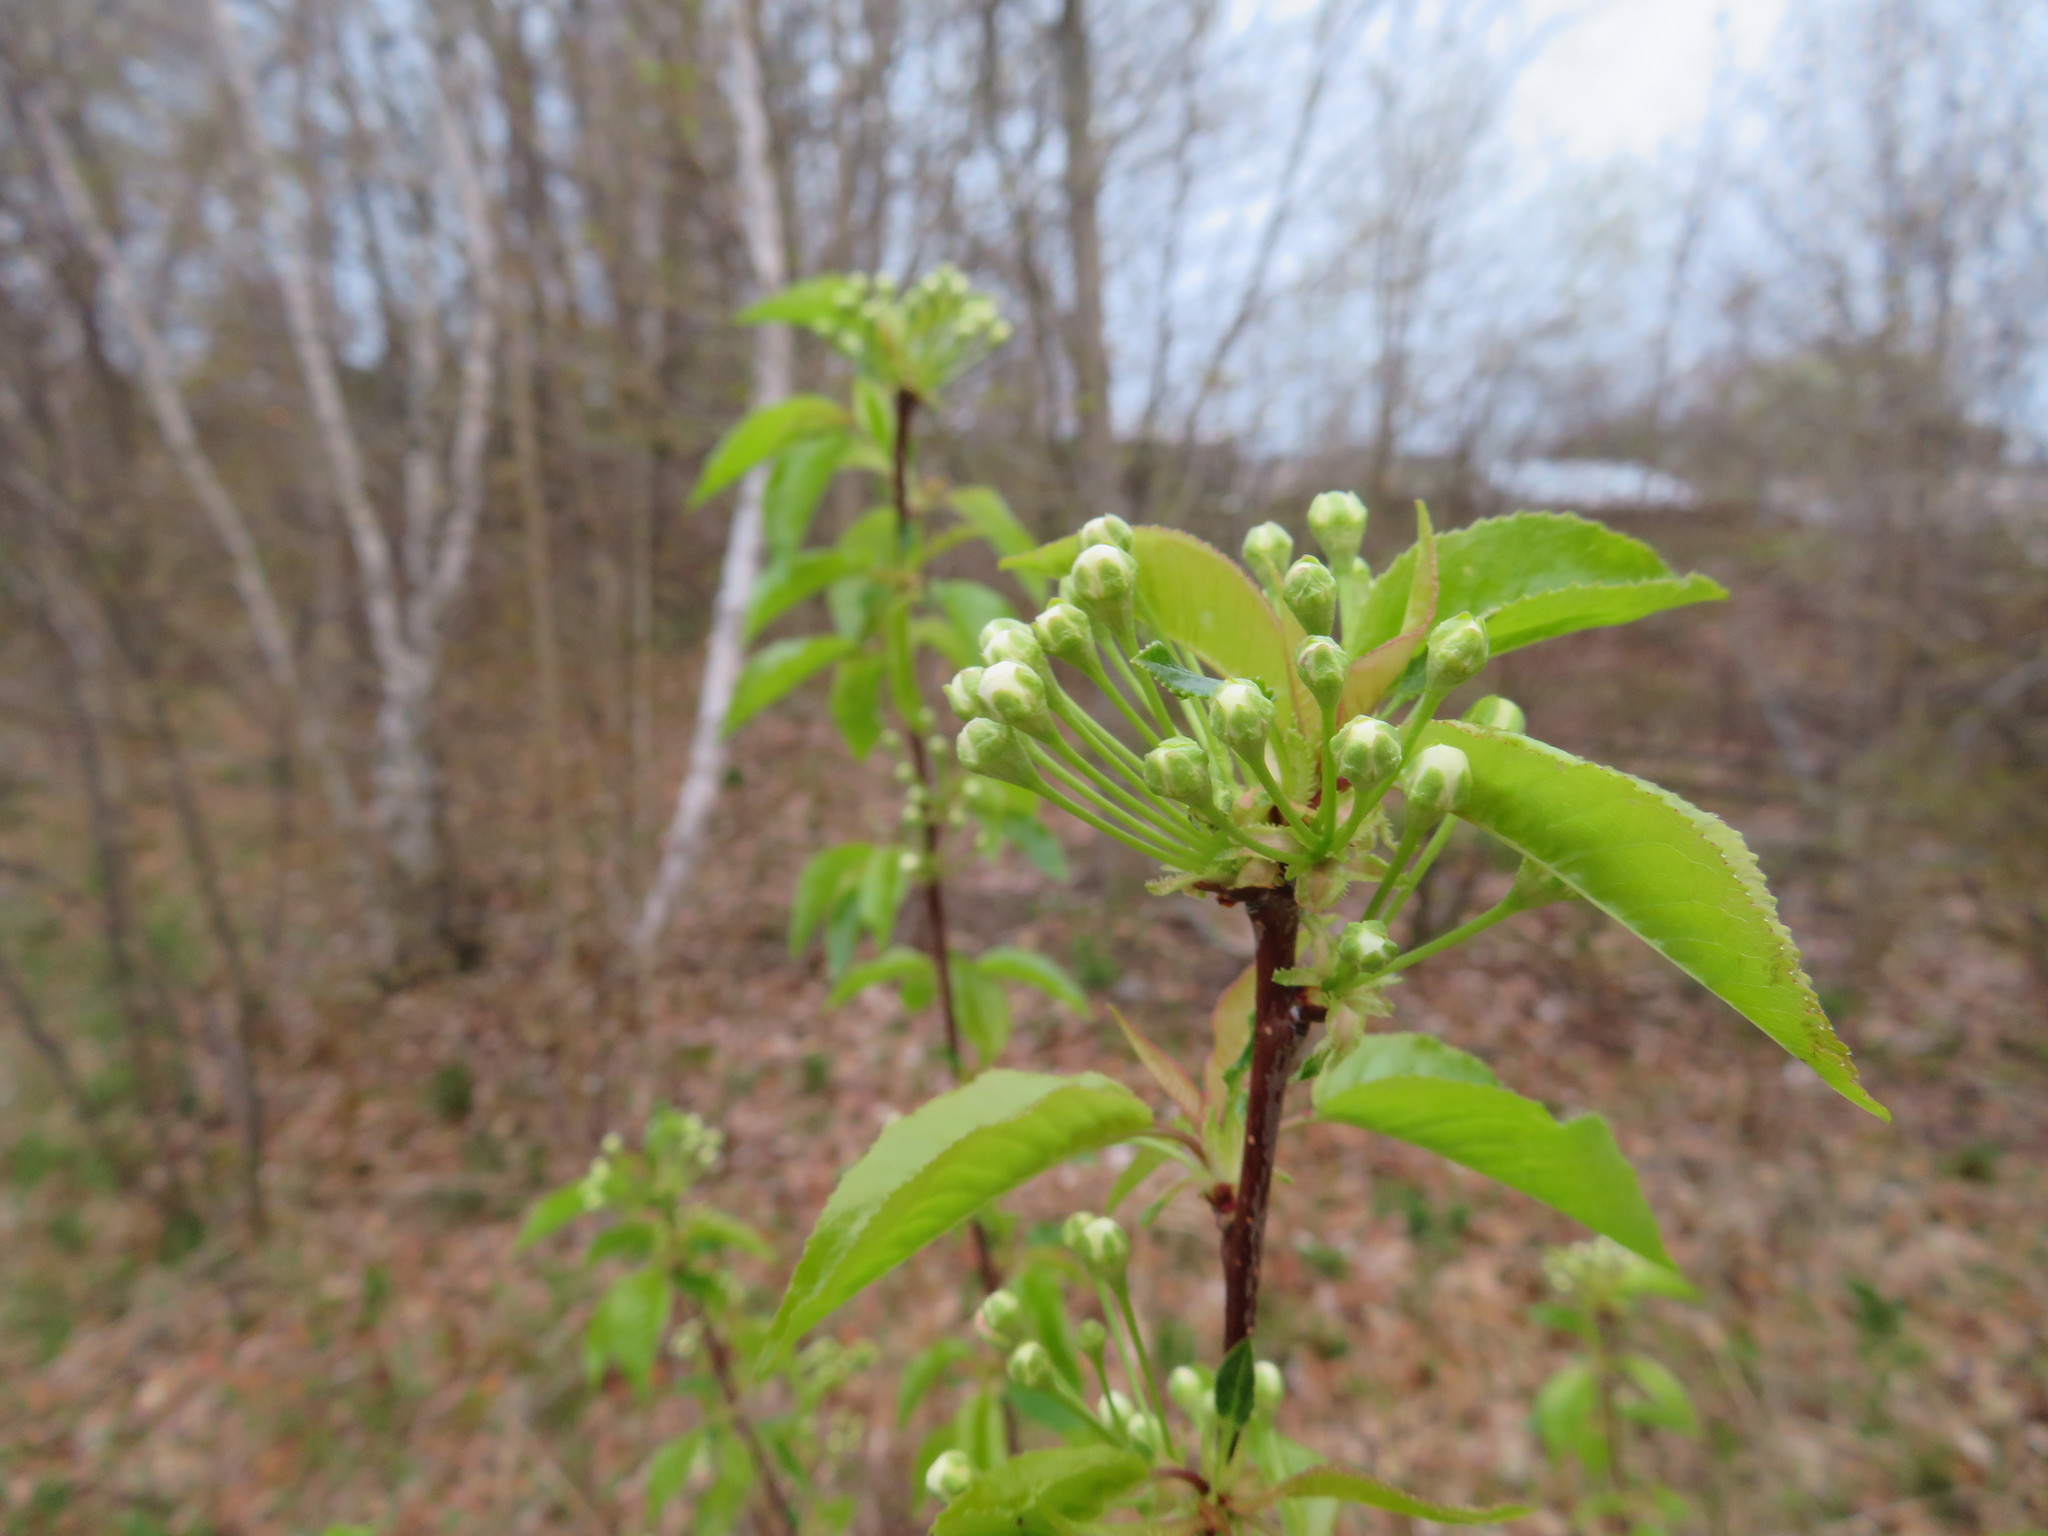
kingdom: Plantae
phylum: Tracheophyta
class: Magnoliopsida
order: Rosales
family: Rosaceae
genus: Prunus
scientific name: Prunus pensylvanica
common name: Pin cherry
